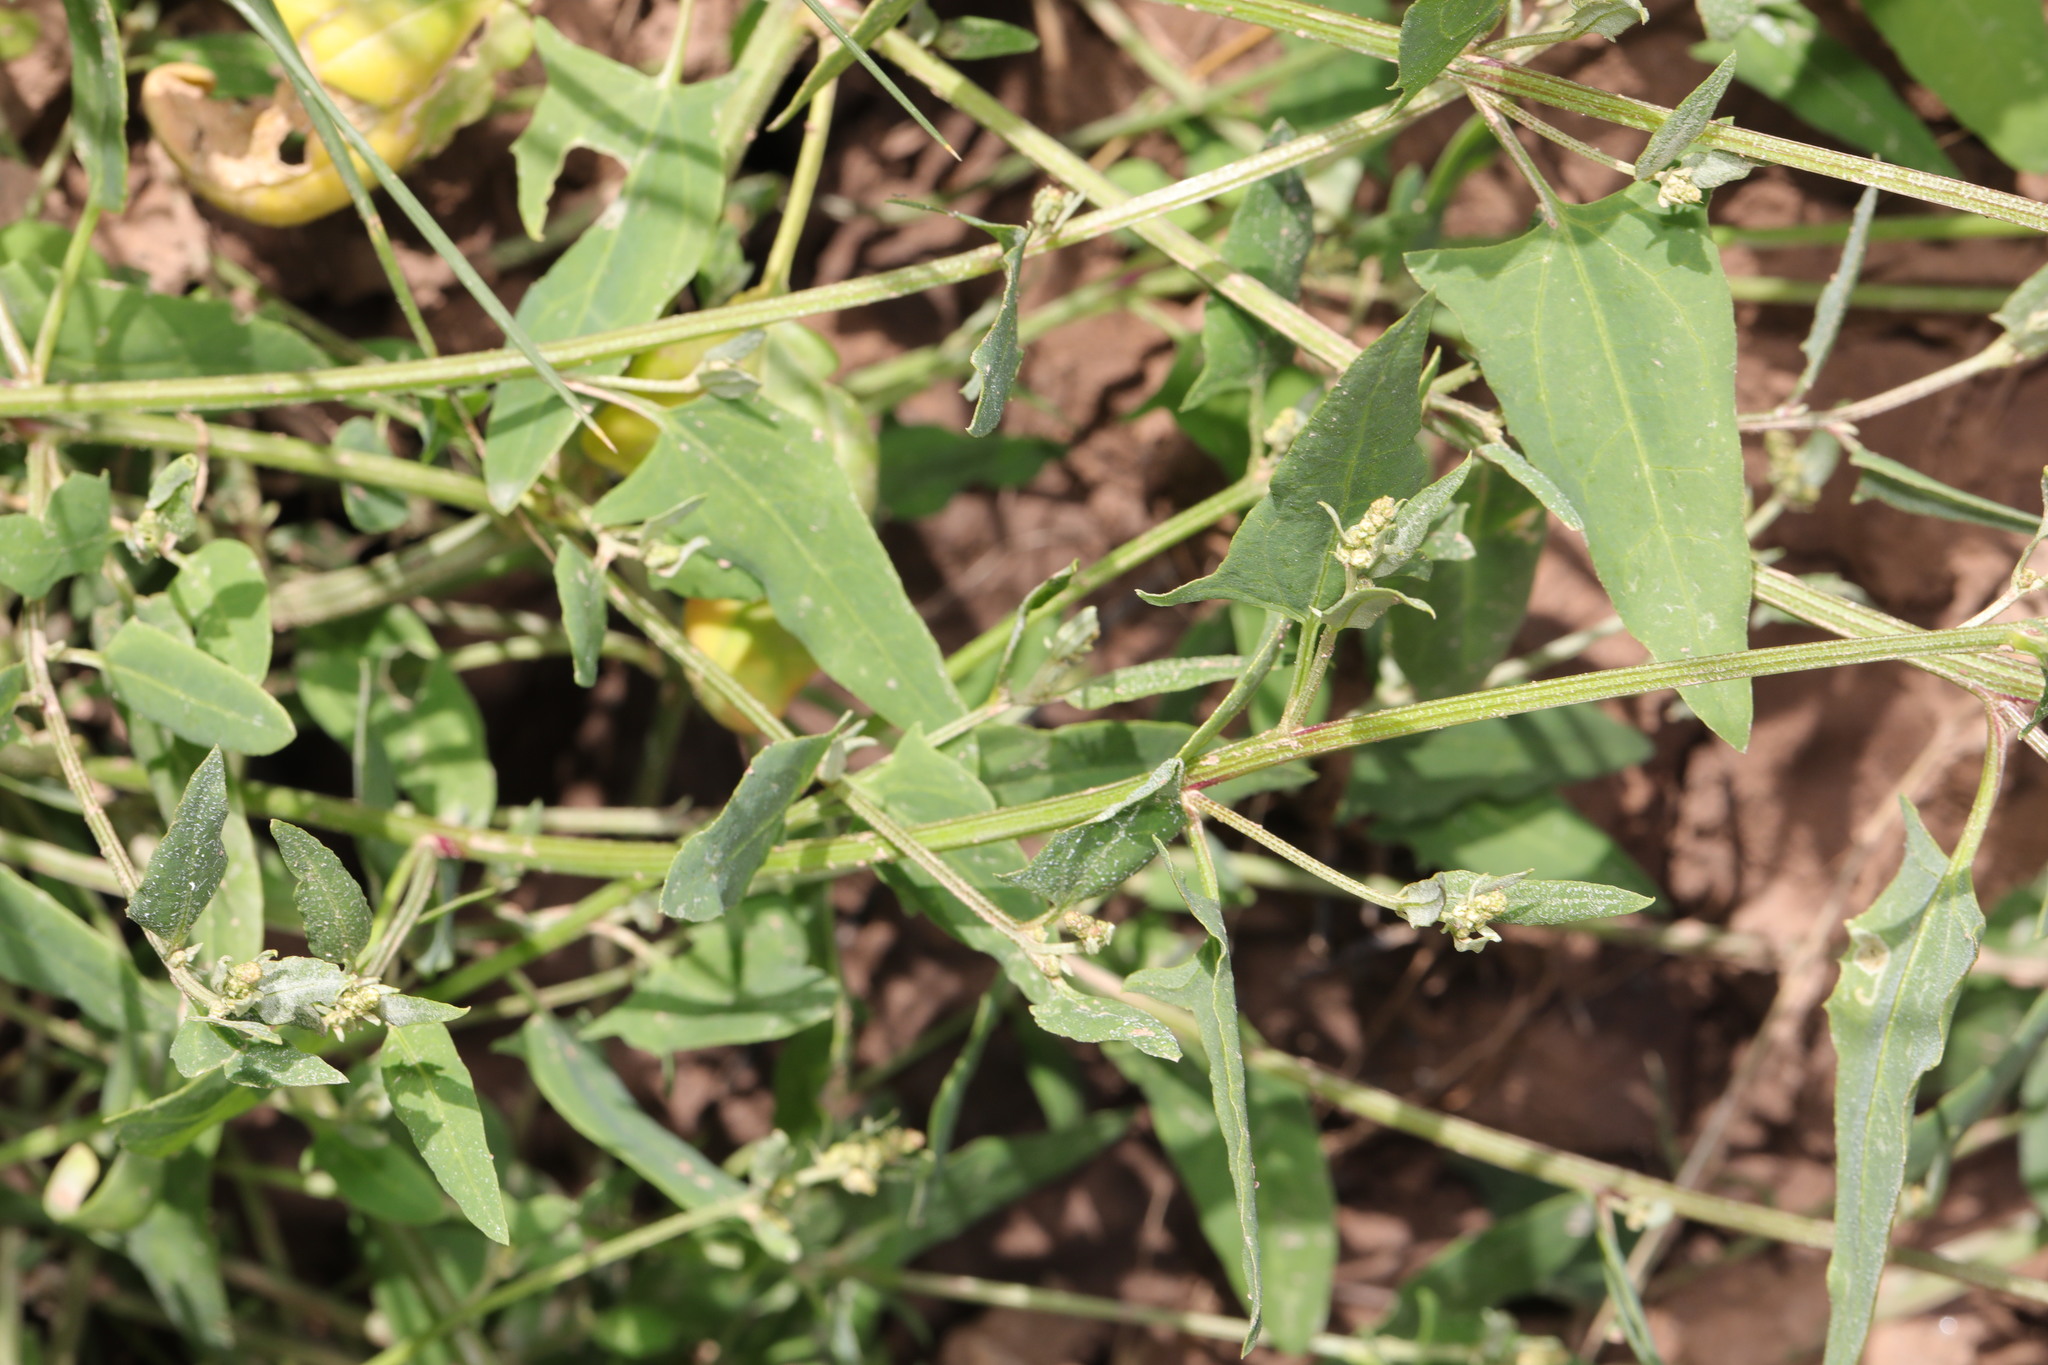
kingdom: Plantae
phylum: Tracheophyta
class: Magnoliopsida
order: Caryophyllales
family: Amaranthaceae
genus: Atriplex
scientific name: Atriplex prostrata
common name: Spear-leaved orache
